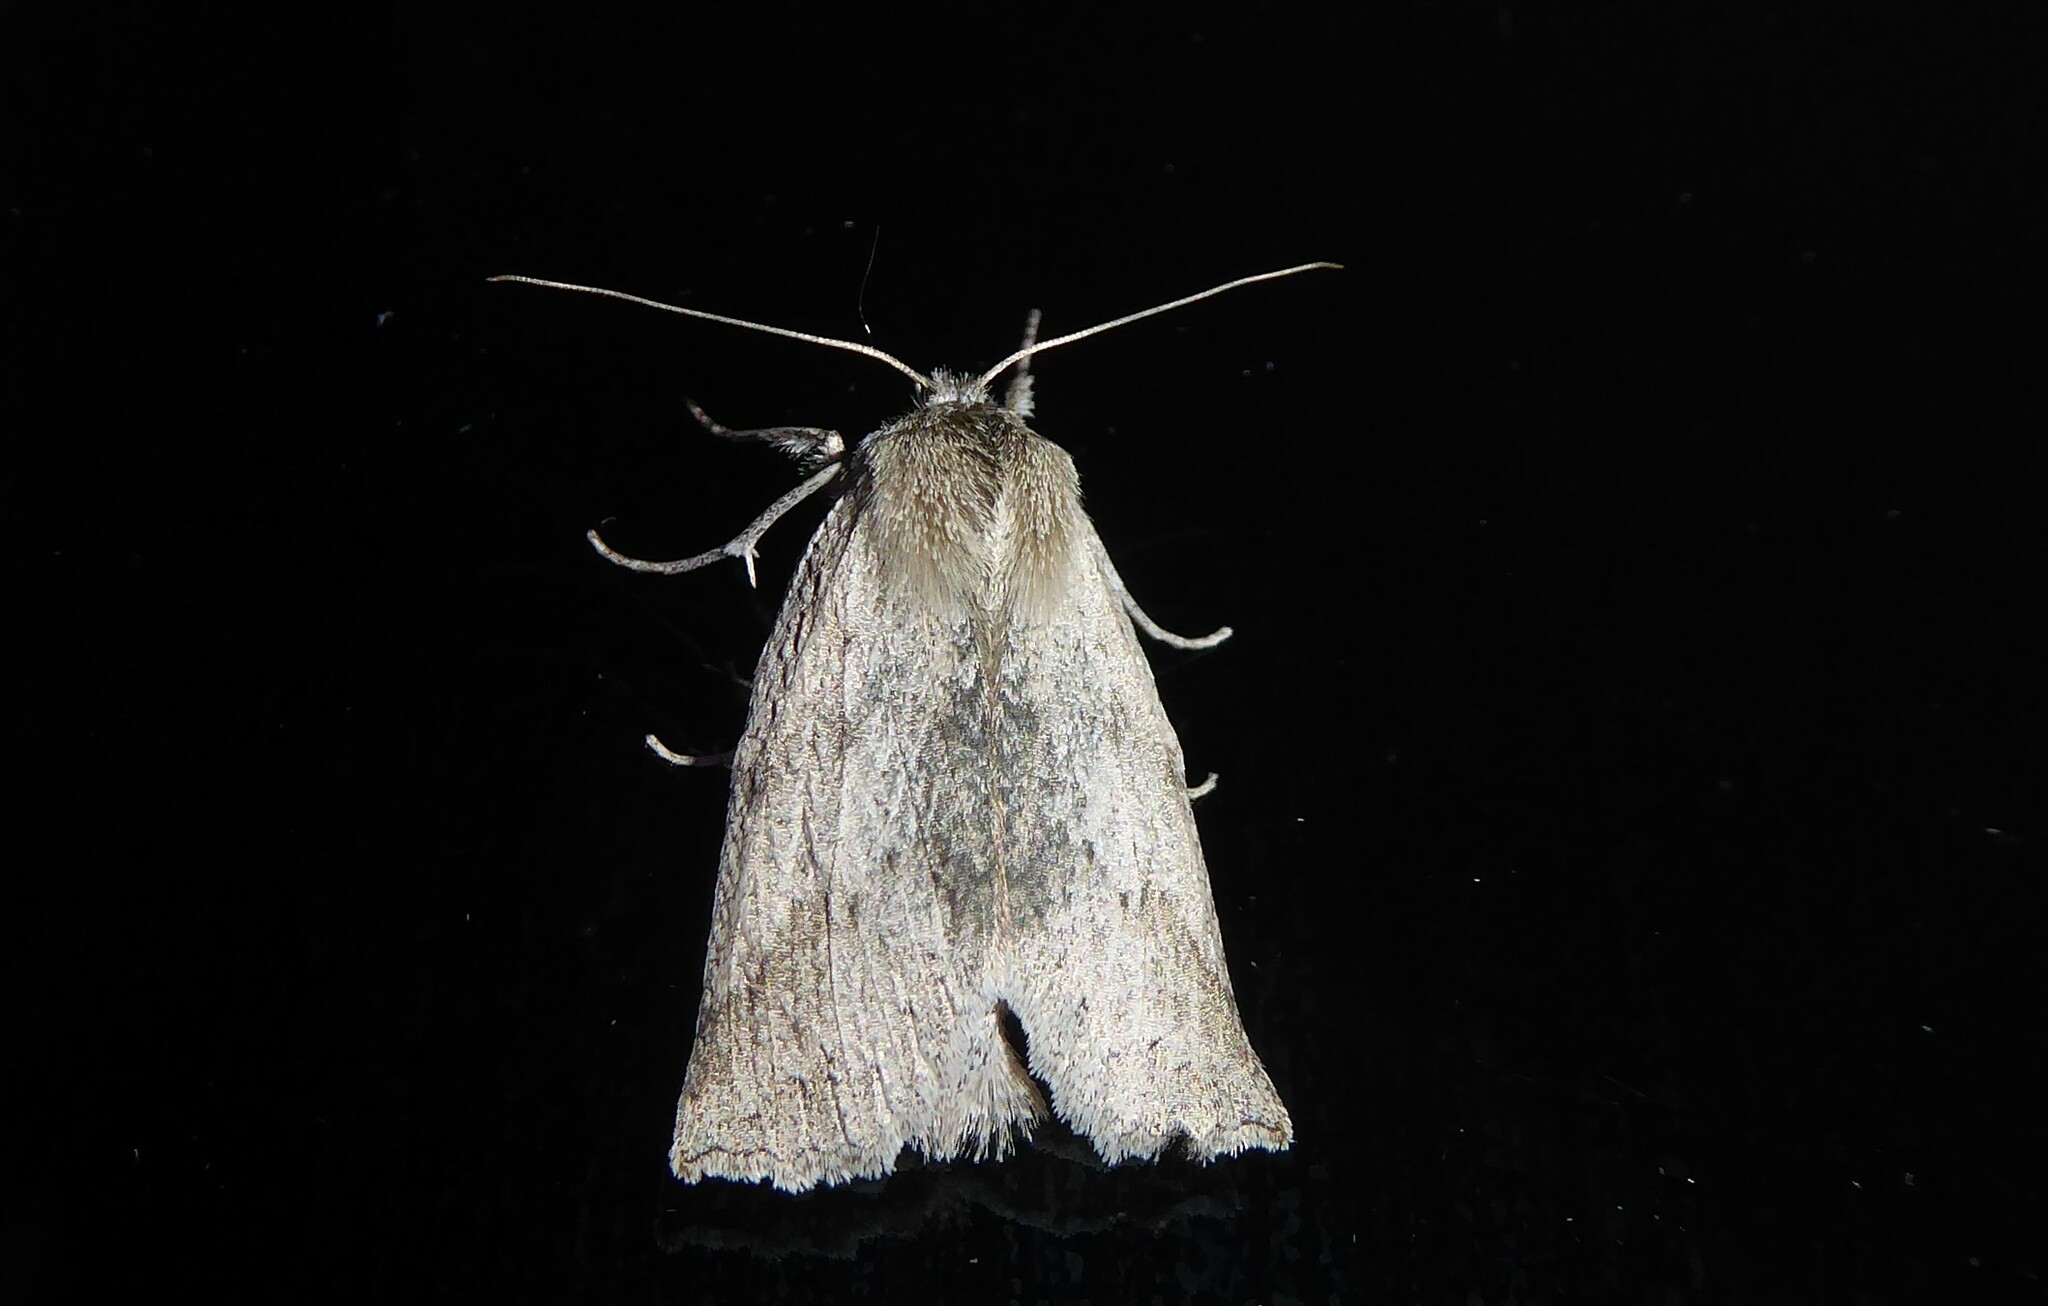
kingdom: Animalia
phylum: Arthropoda
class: Insecta
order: Lepidoptera
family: Geometridae
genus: Declana
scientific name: Declana leptomera
